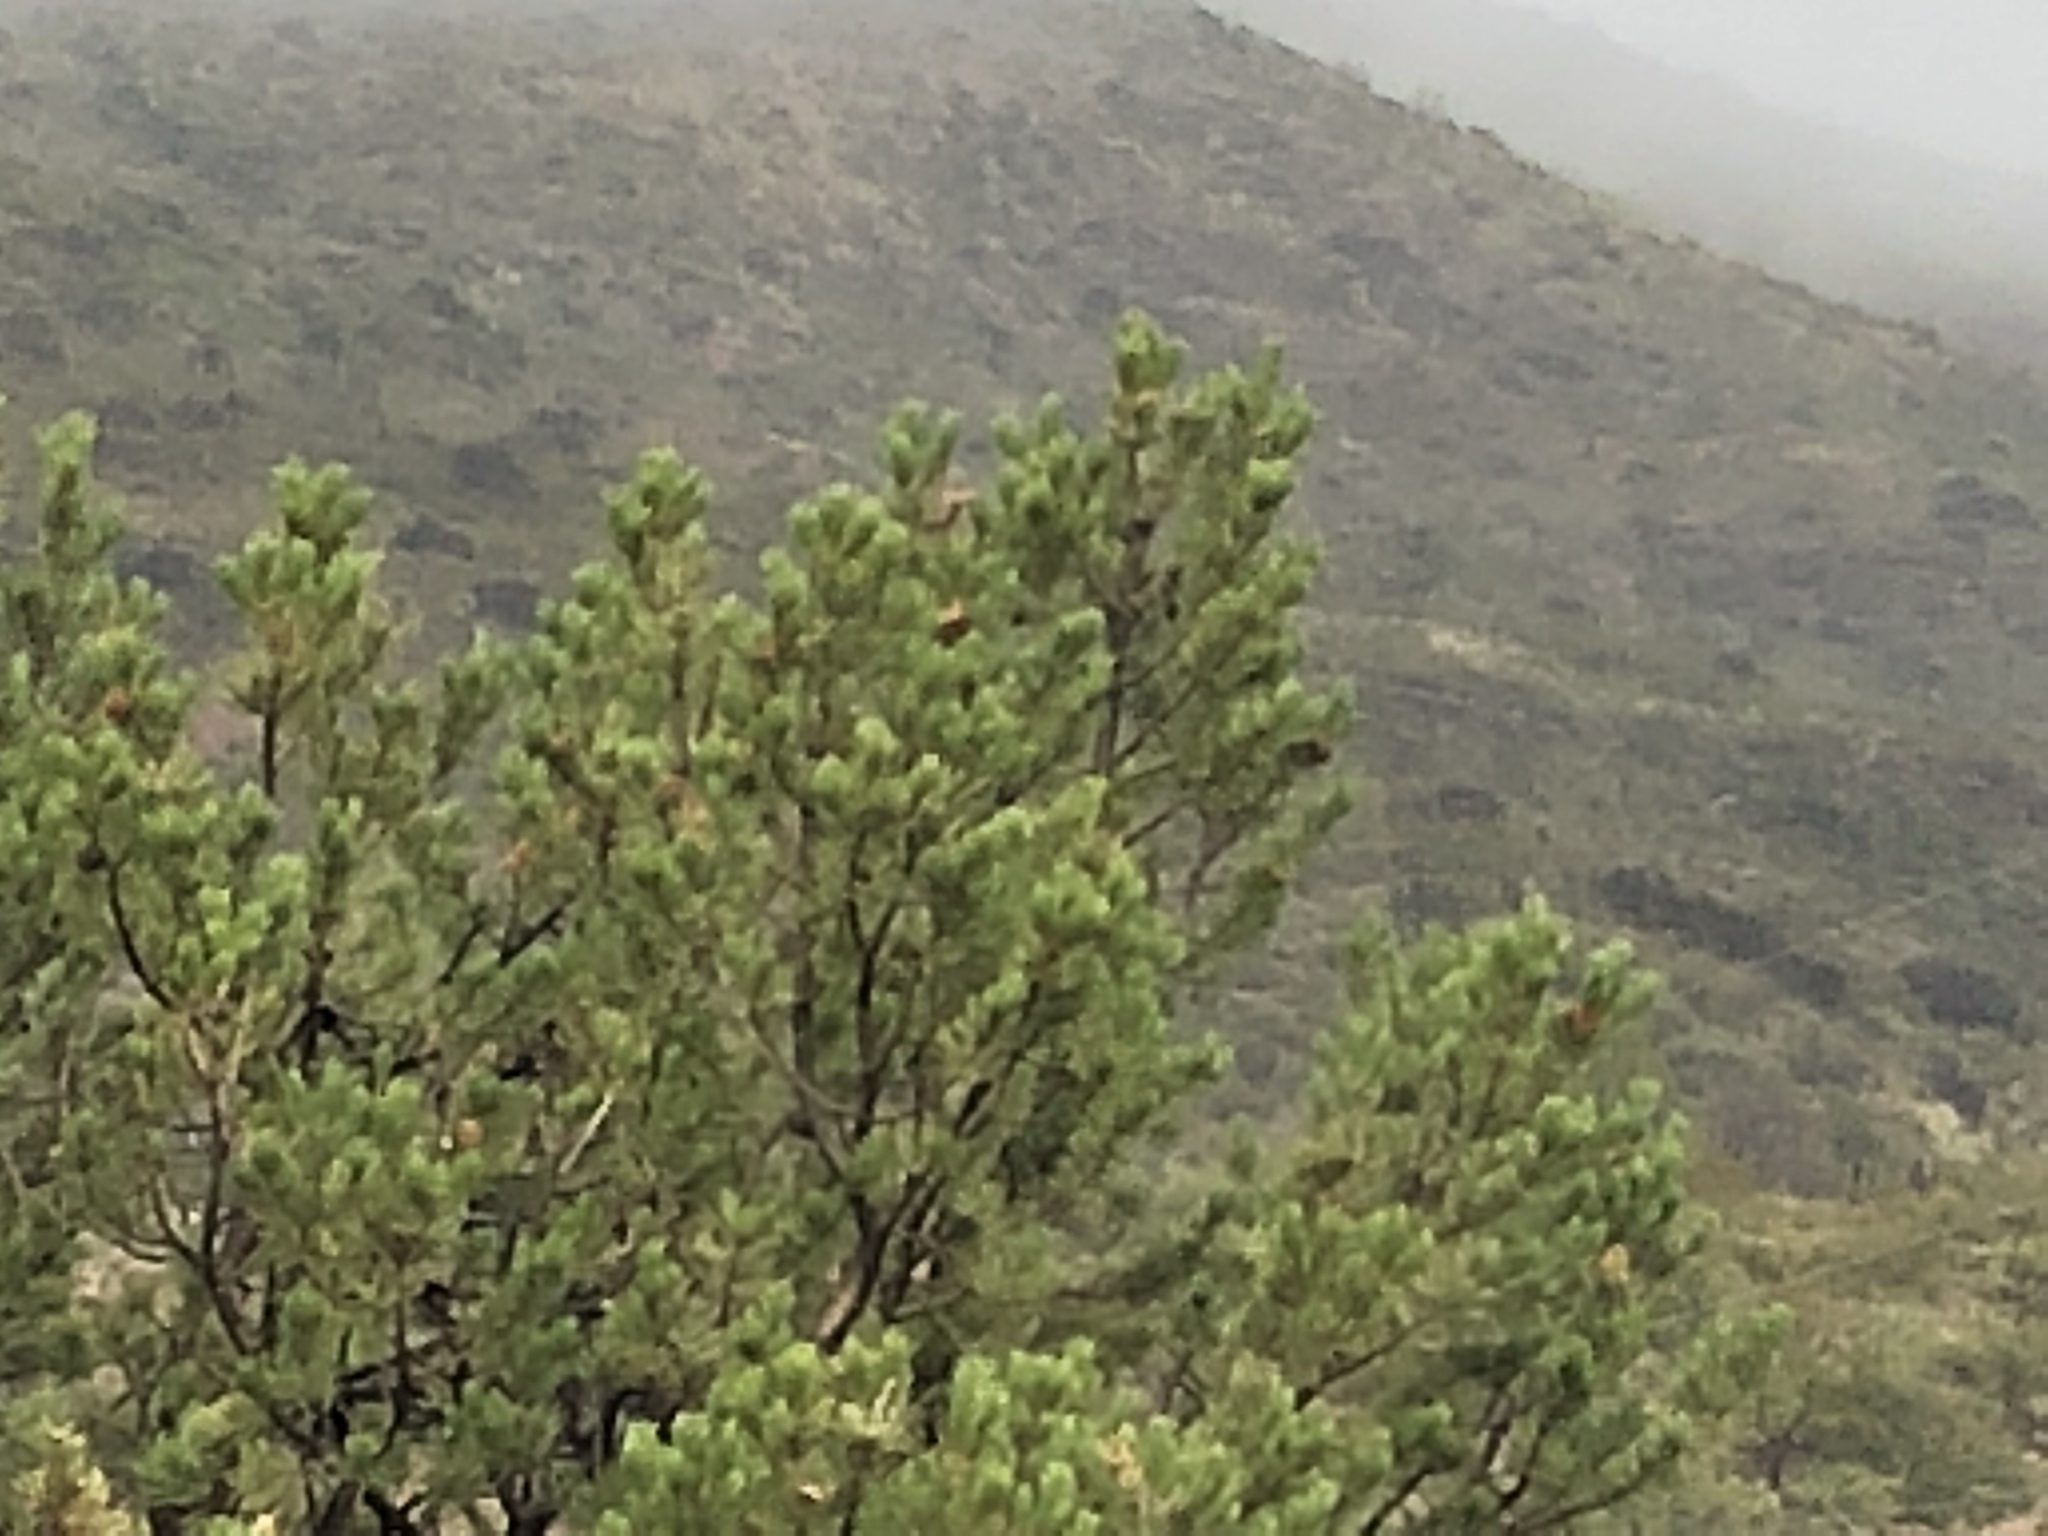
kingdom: Plantae
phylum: Tracheophyta
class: Pinopsida
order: Pinales
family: Pinaceae
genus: Pinus
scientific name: Pinus edulis
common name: Colorado pinyon
